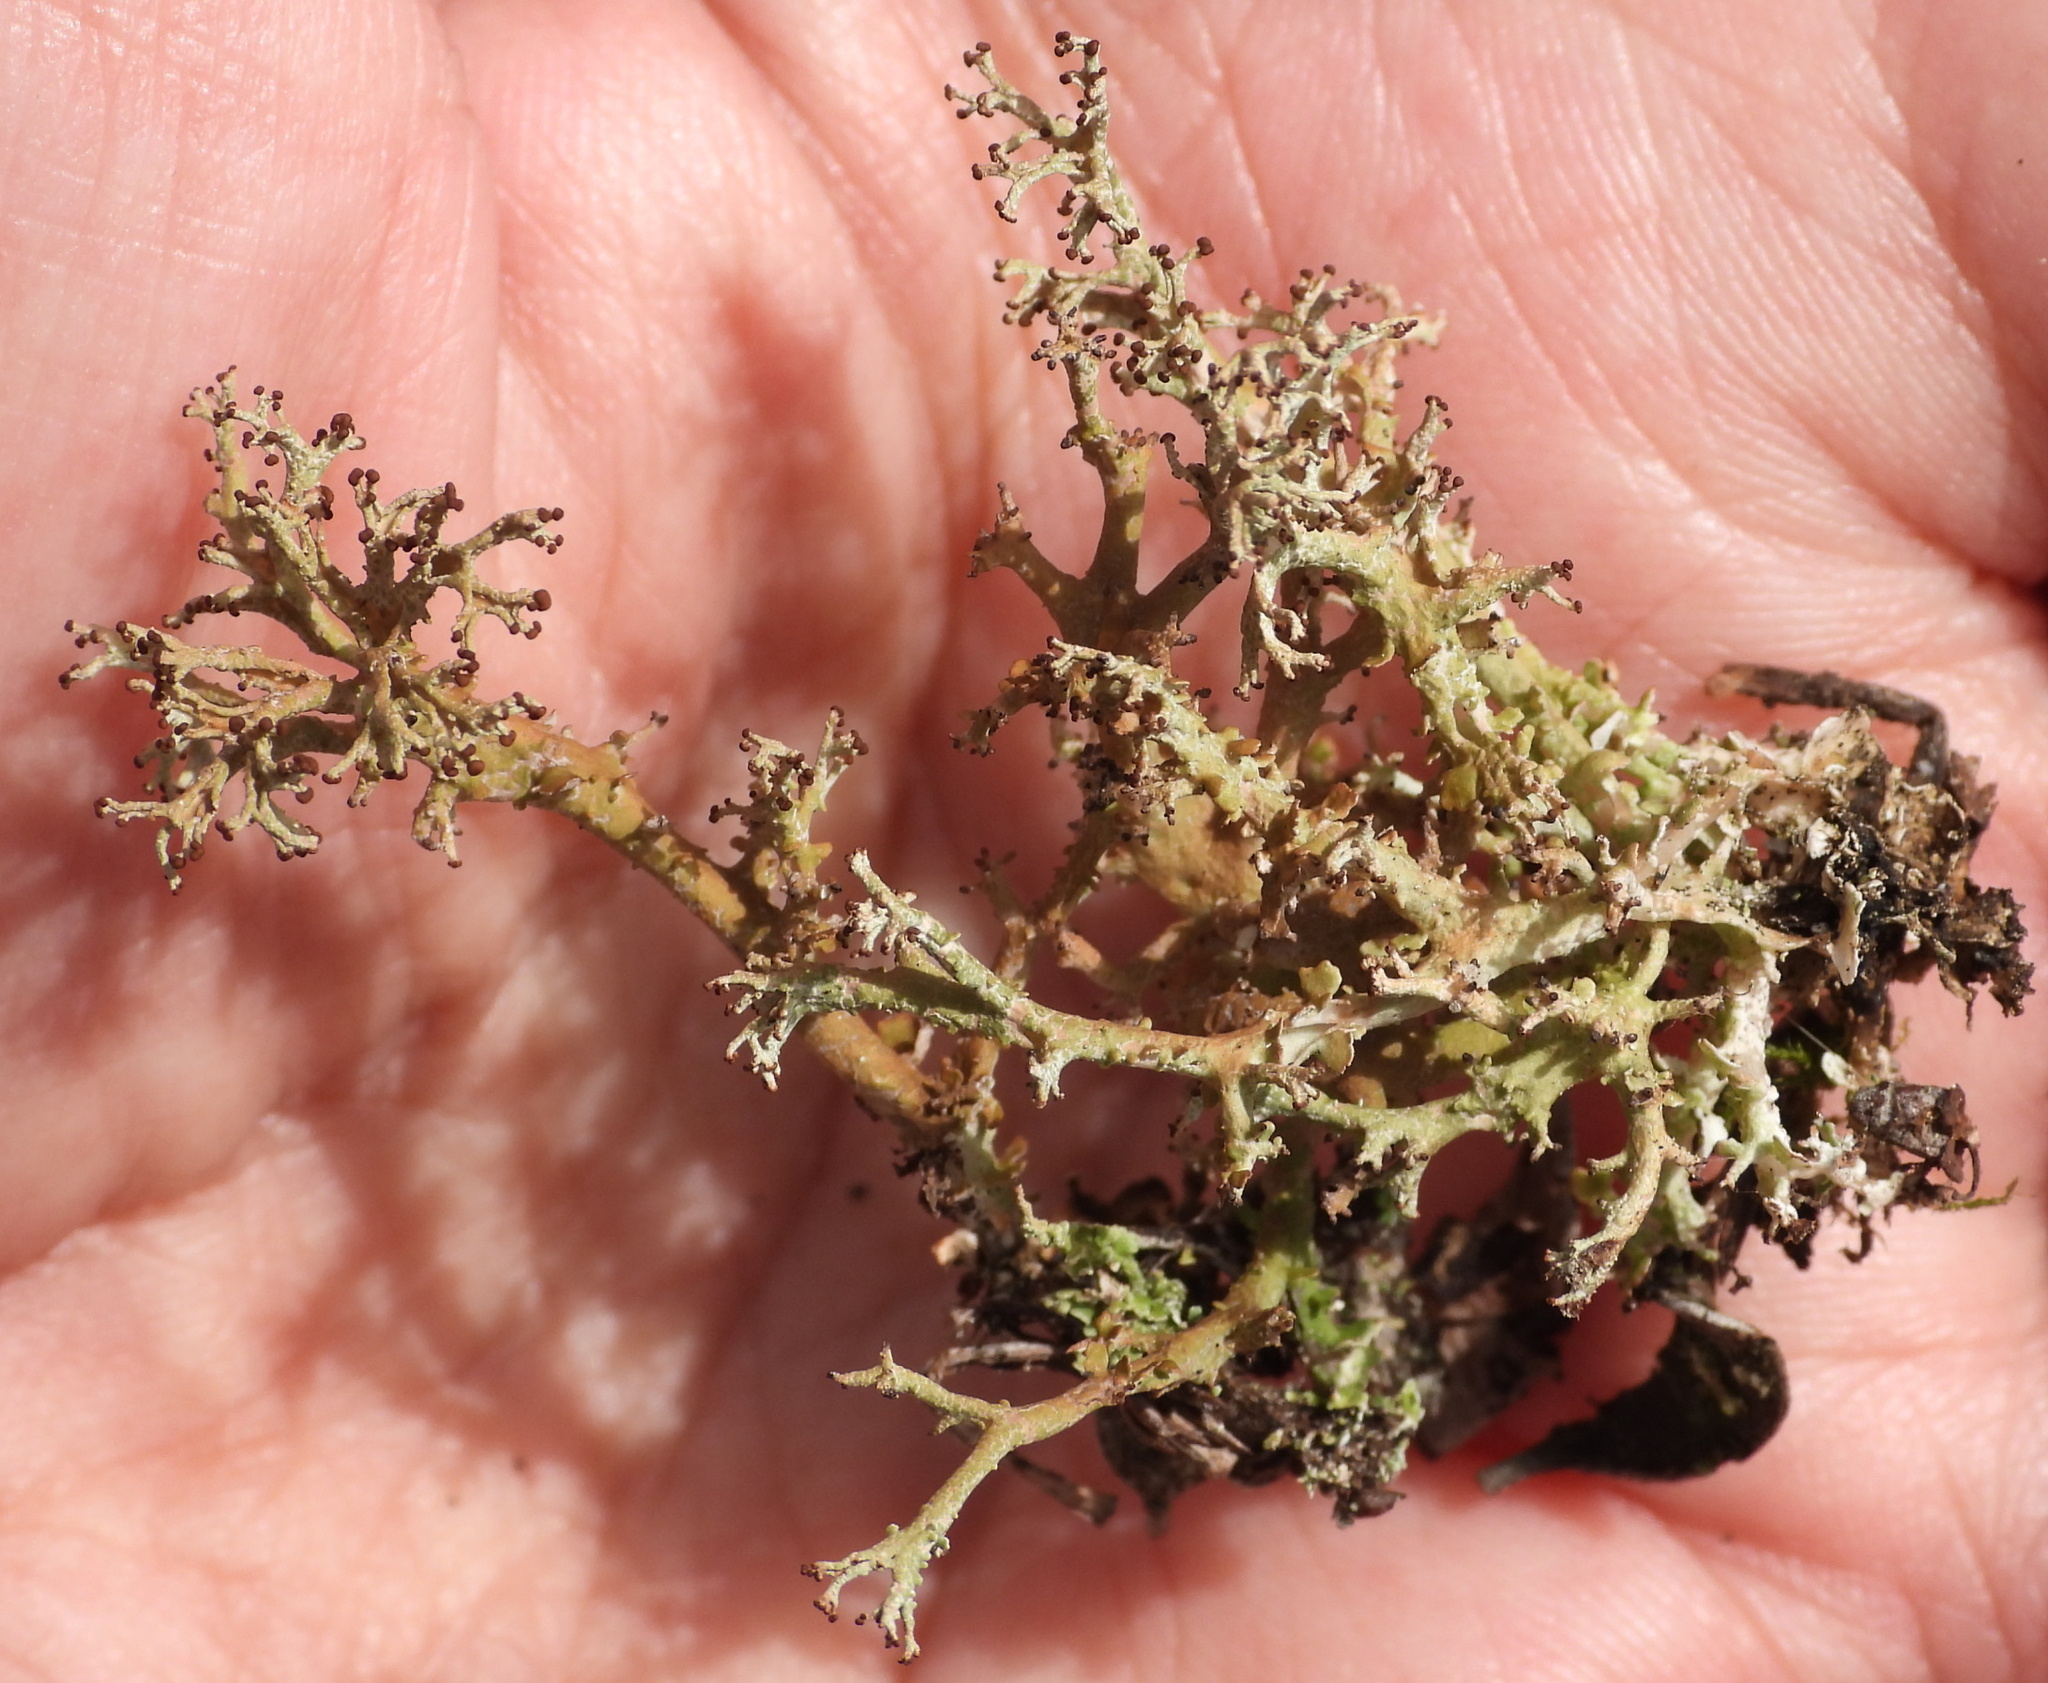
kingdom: Fungi
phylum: Ascomycota
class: Lecanoromycetes
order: Lecanorales
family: Cladoniaceae
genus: Cladonia
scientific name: Cladonia furcata
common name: Many-forked cladonia
